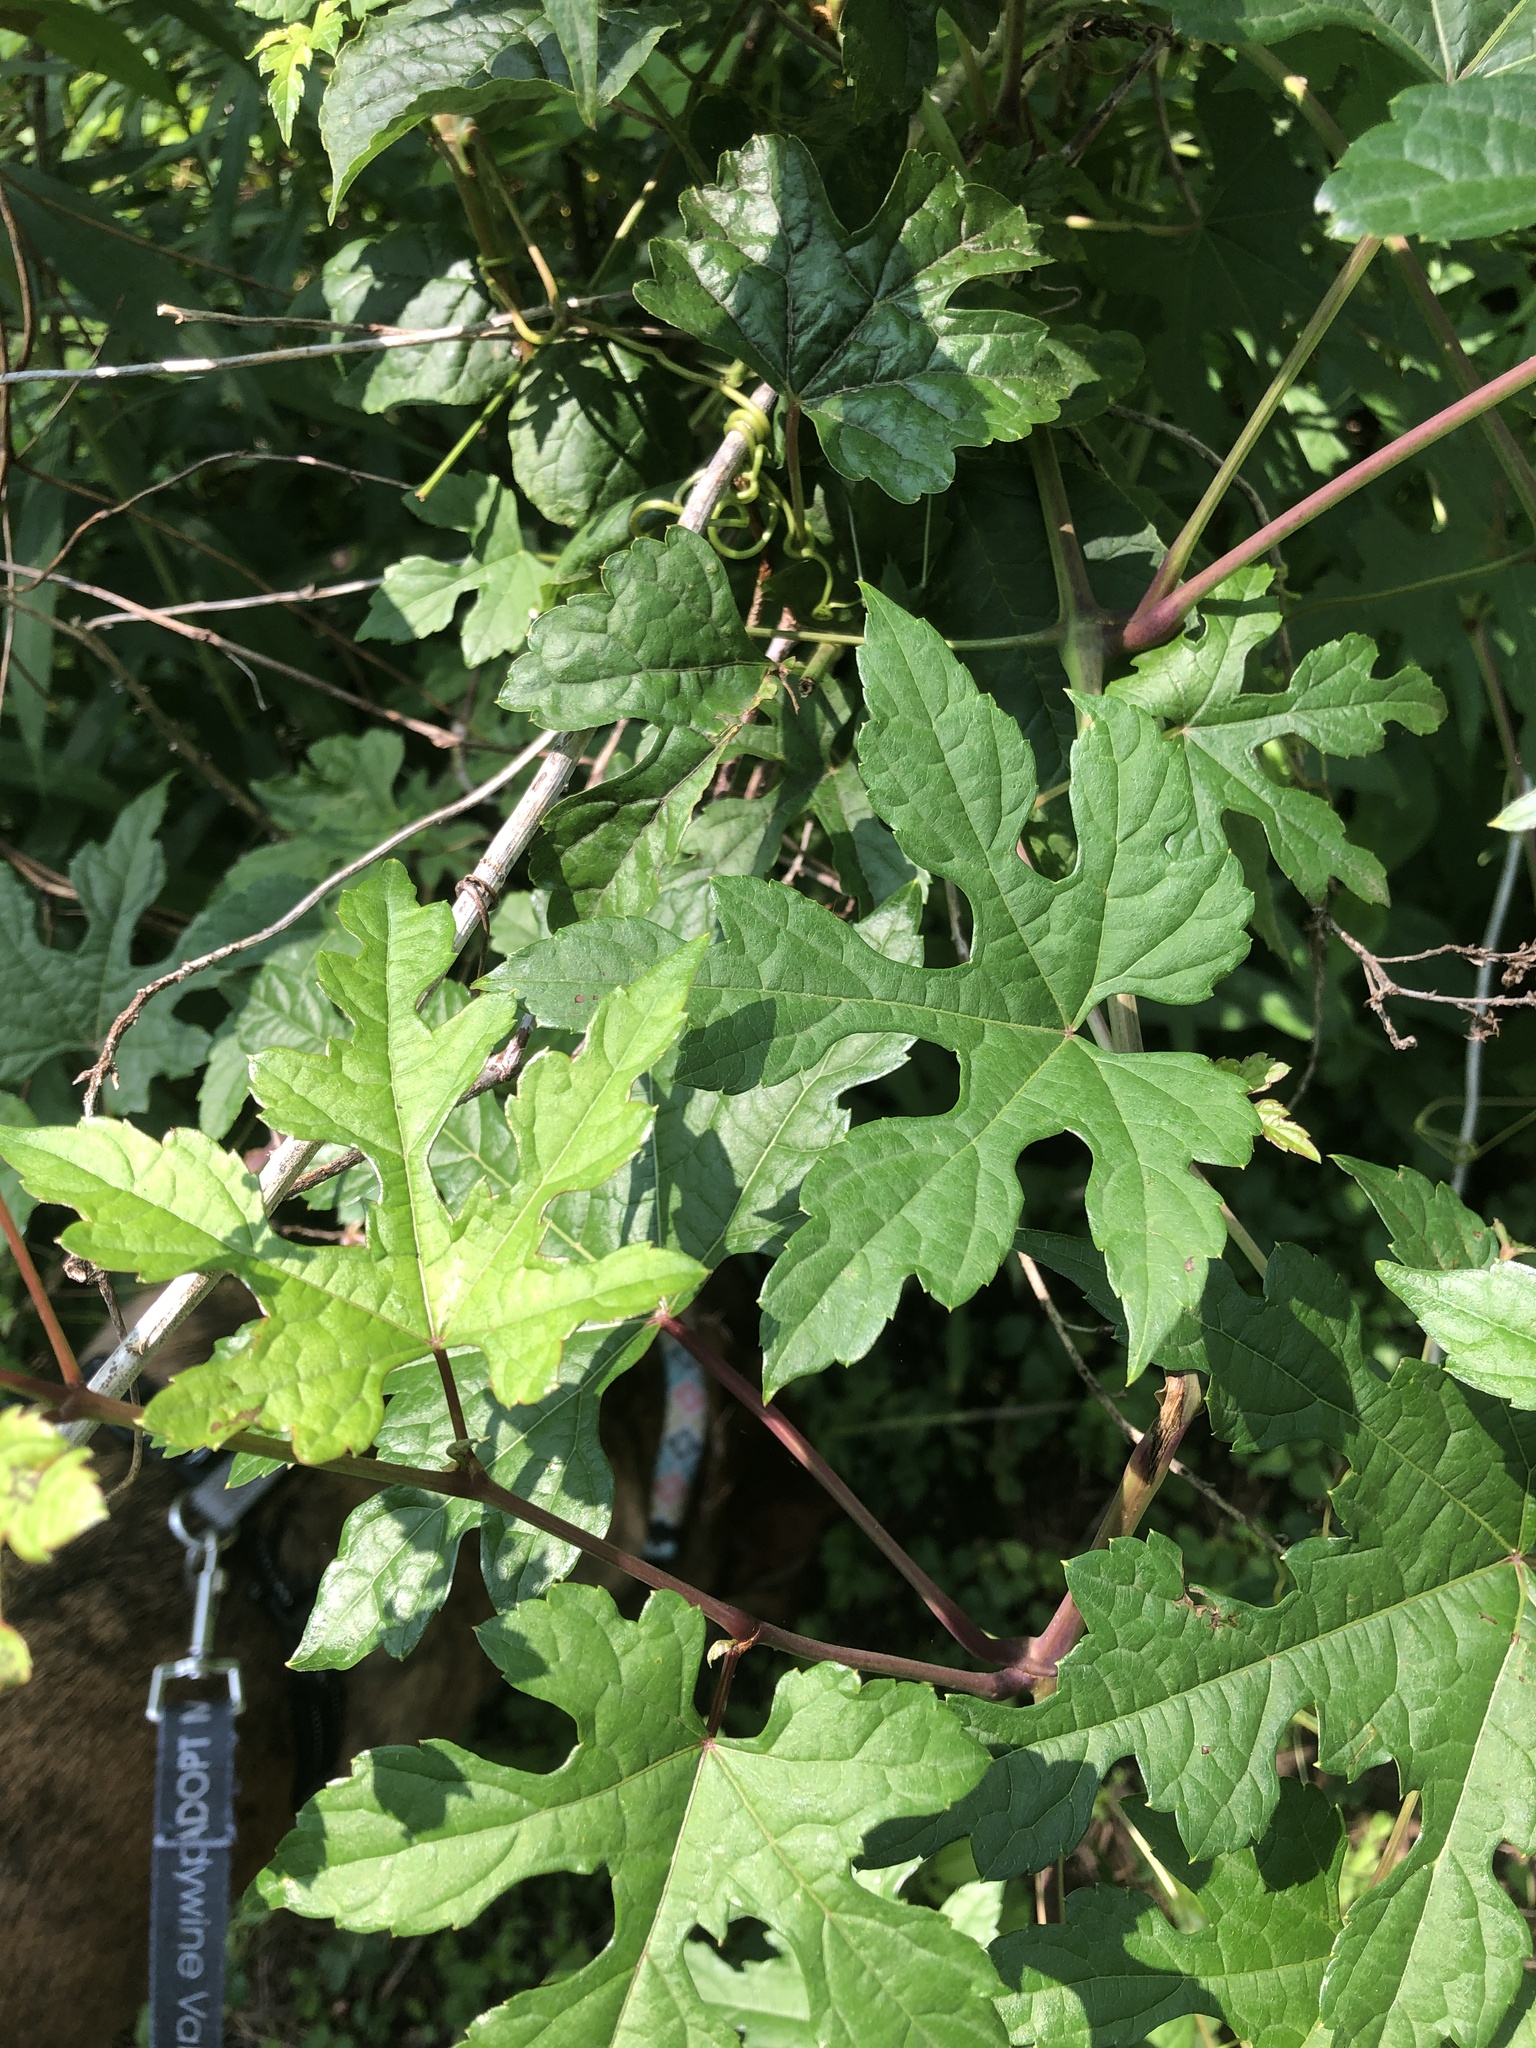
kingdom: Plantae
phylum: Tracheophyta
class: Magnoliopsida
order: Vitales
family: Vitaceae
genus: Ampelopsis
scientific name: Ampelopsis glandulosa
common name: Amur peppervine
